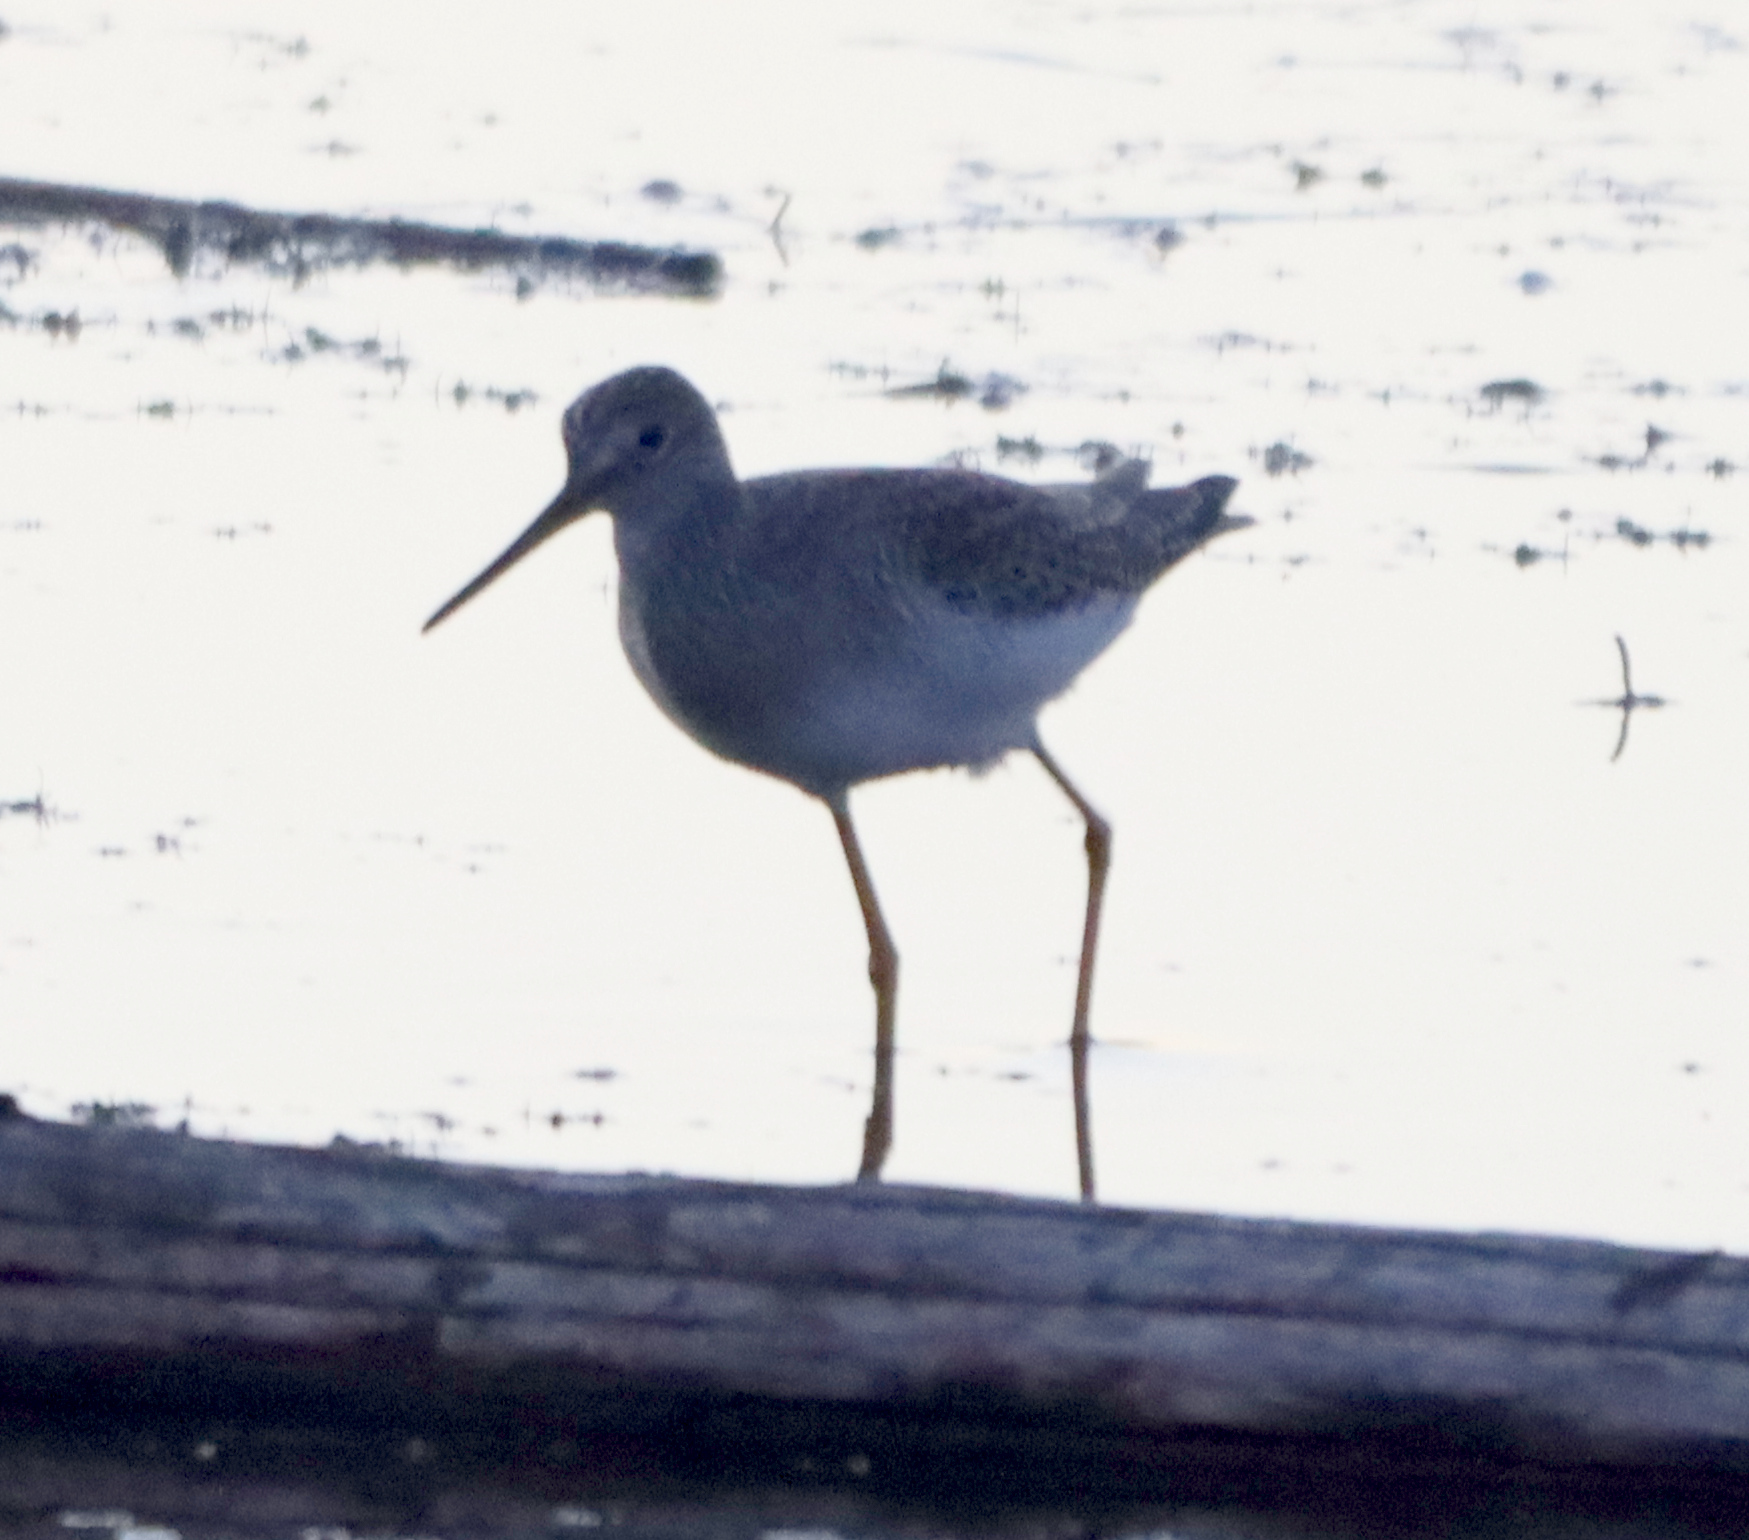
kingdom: Animalia
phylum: Chordata
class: Aves
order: Charadriiformes
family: Scolopacidae
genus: Tringa
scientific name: Tringa melanoleuca
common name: Greater yellowlegs
